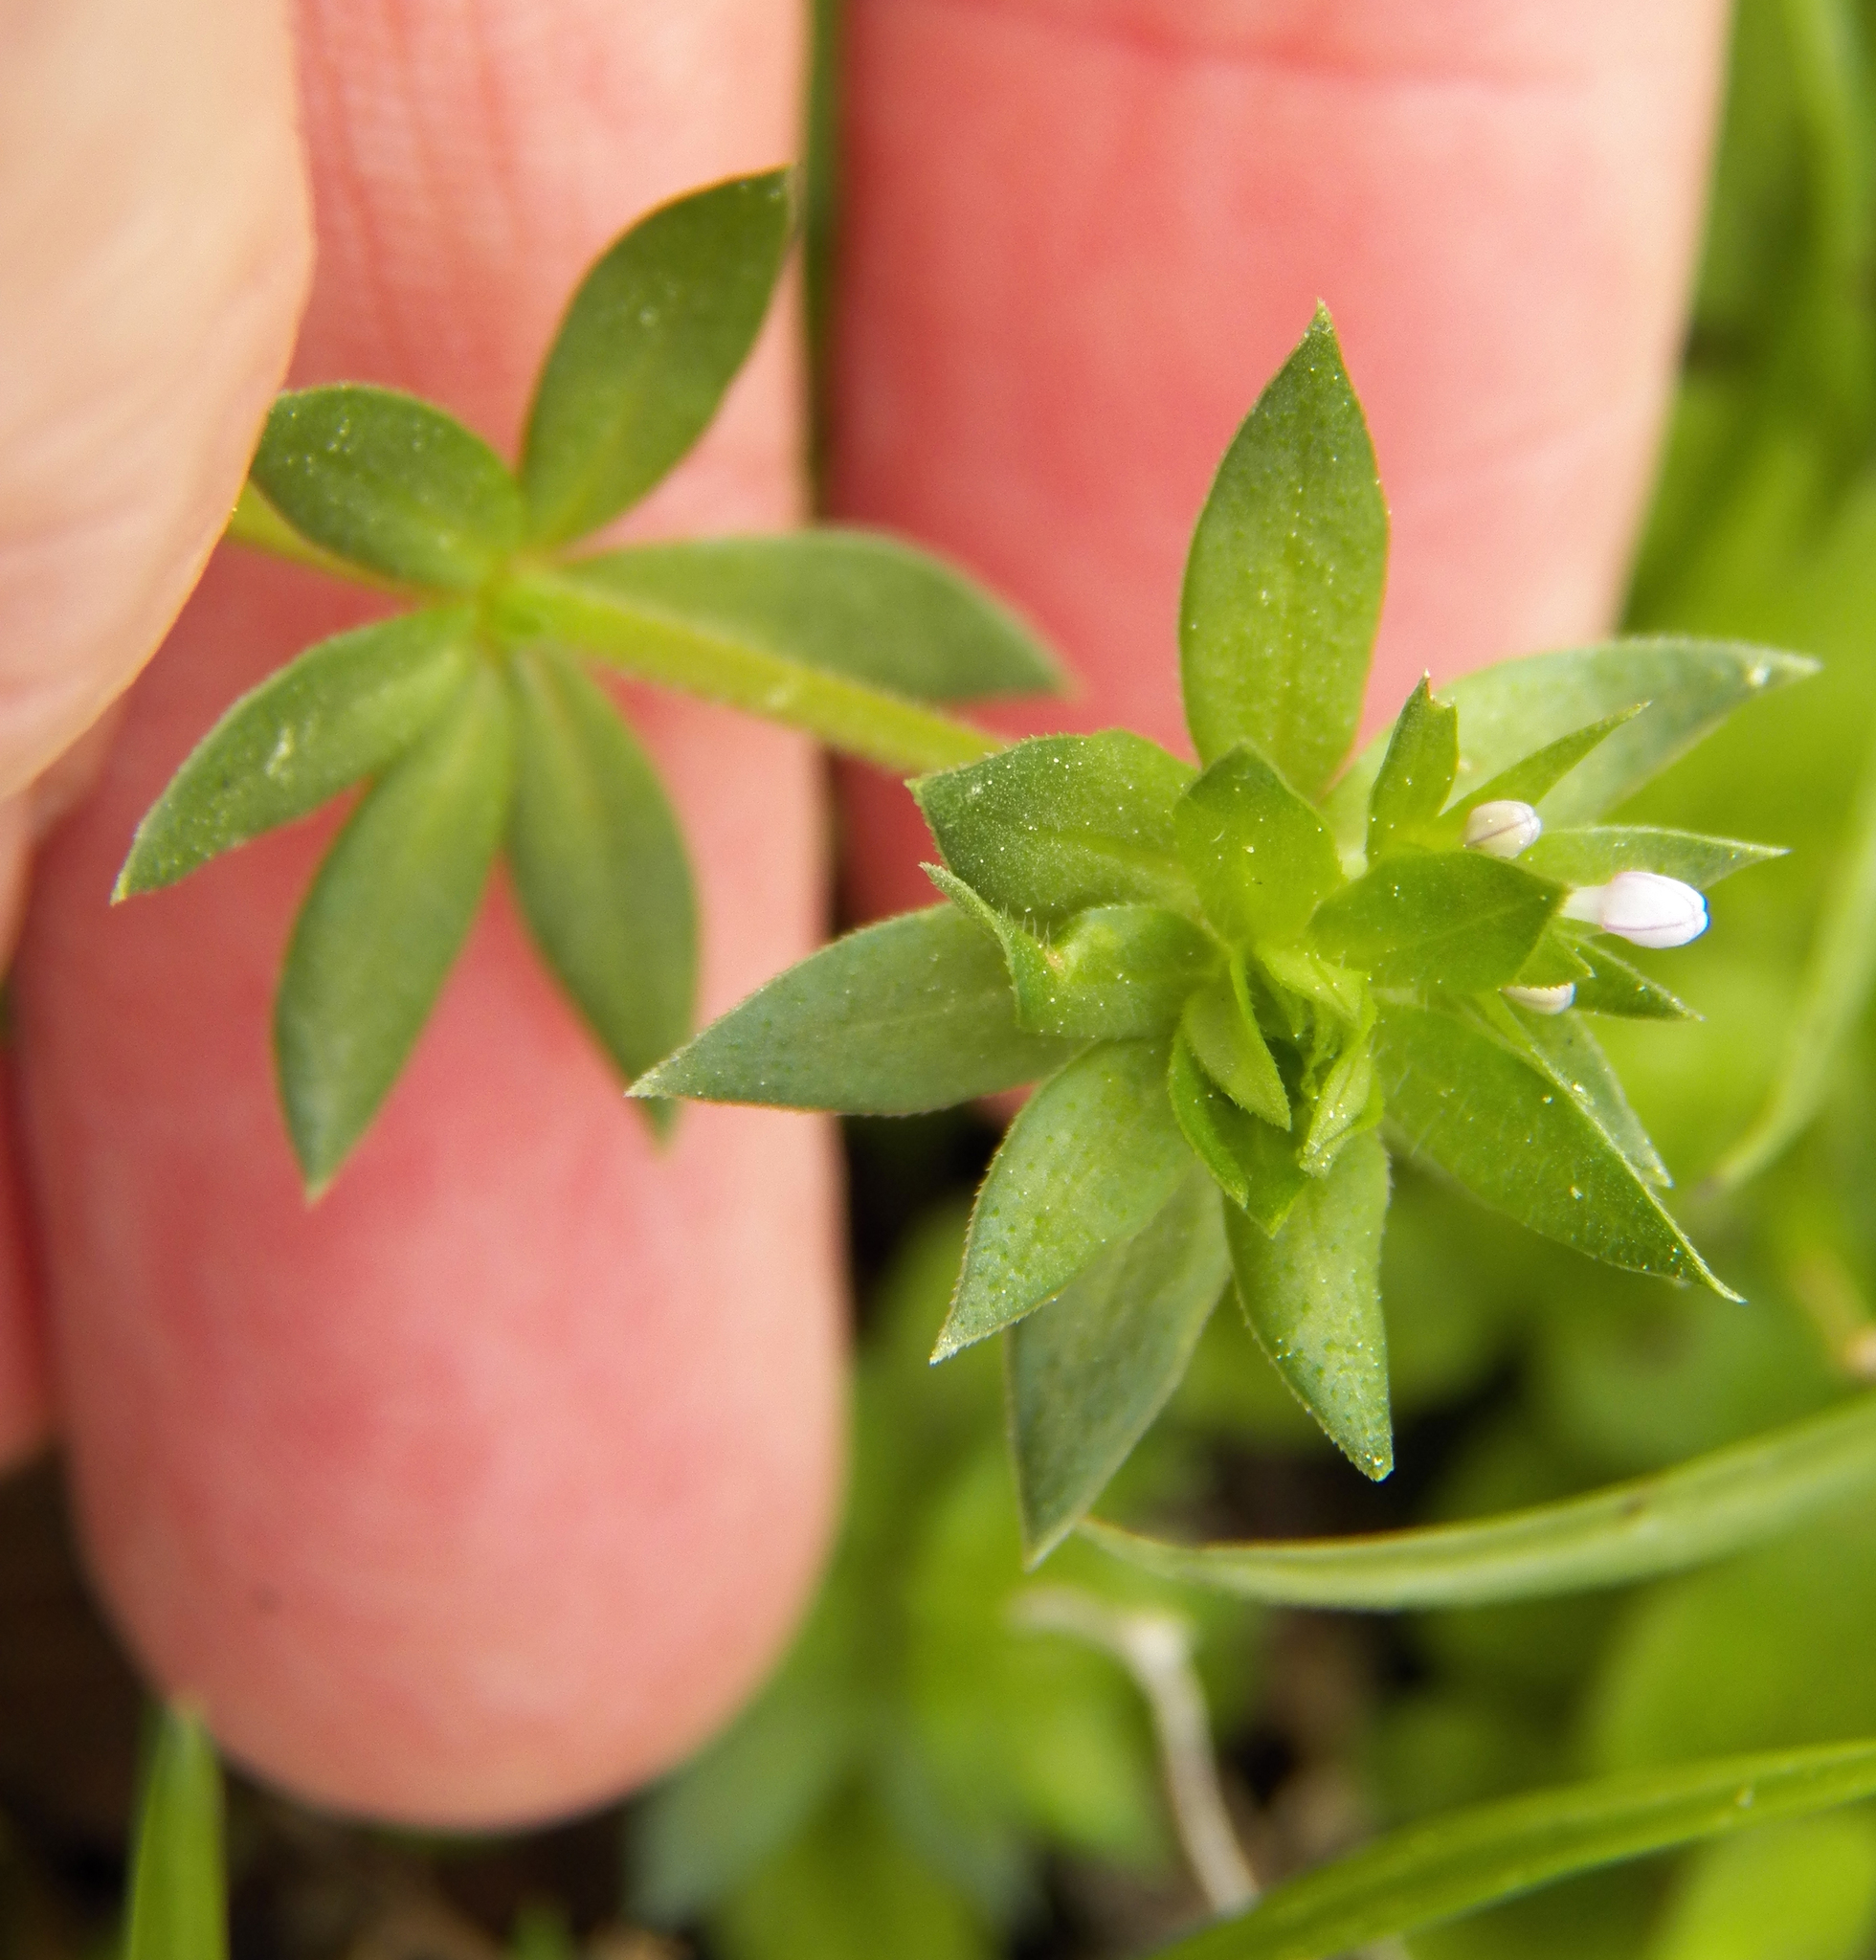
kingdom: Plantae
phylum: Tracheophyta
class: Magnoliopsida
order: Gentianales
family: Rubiaceae
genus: Sherardia
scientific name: Sherardia arvensis
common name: Field madder
